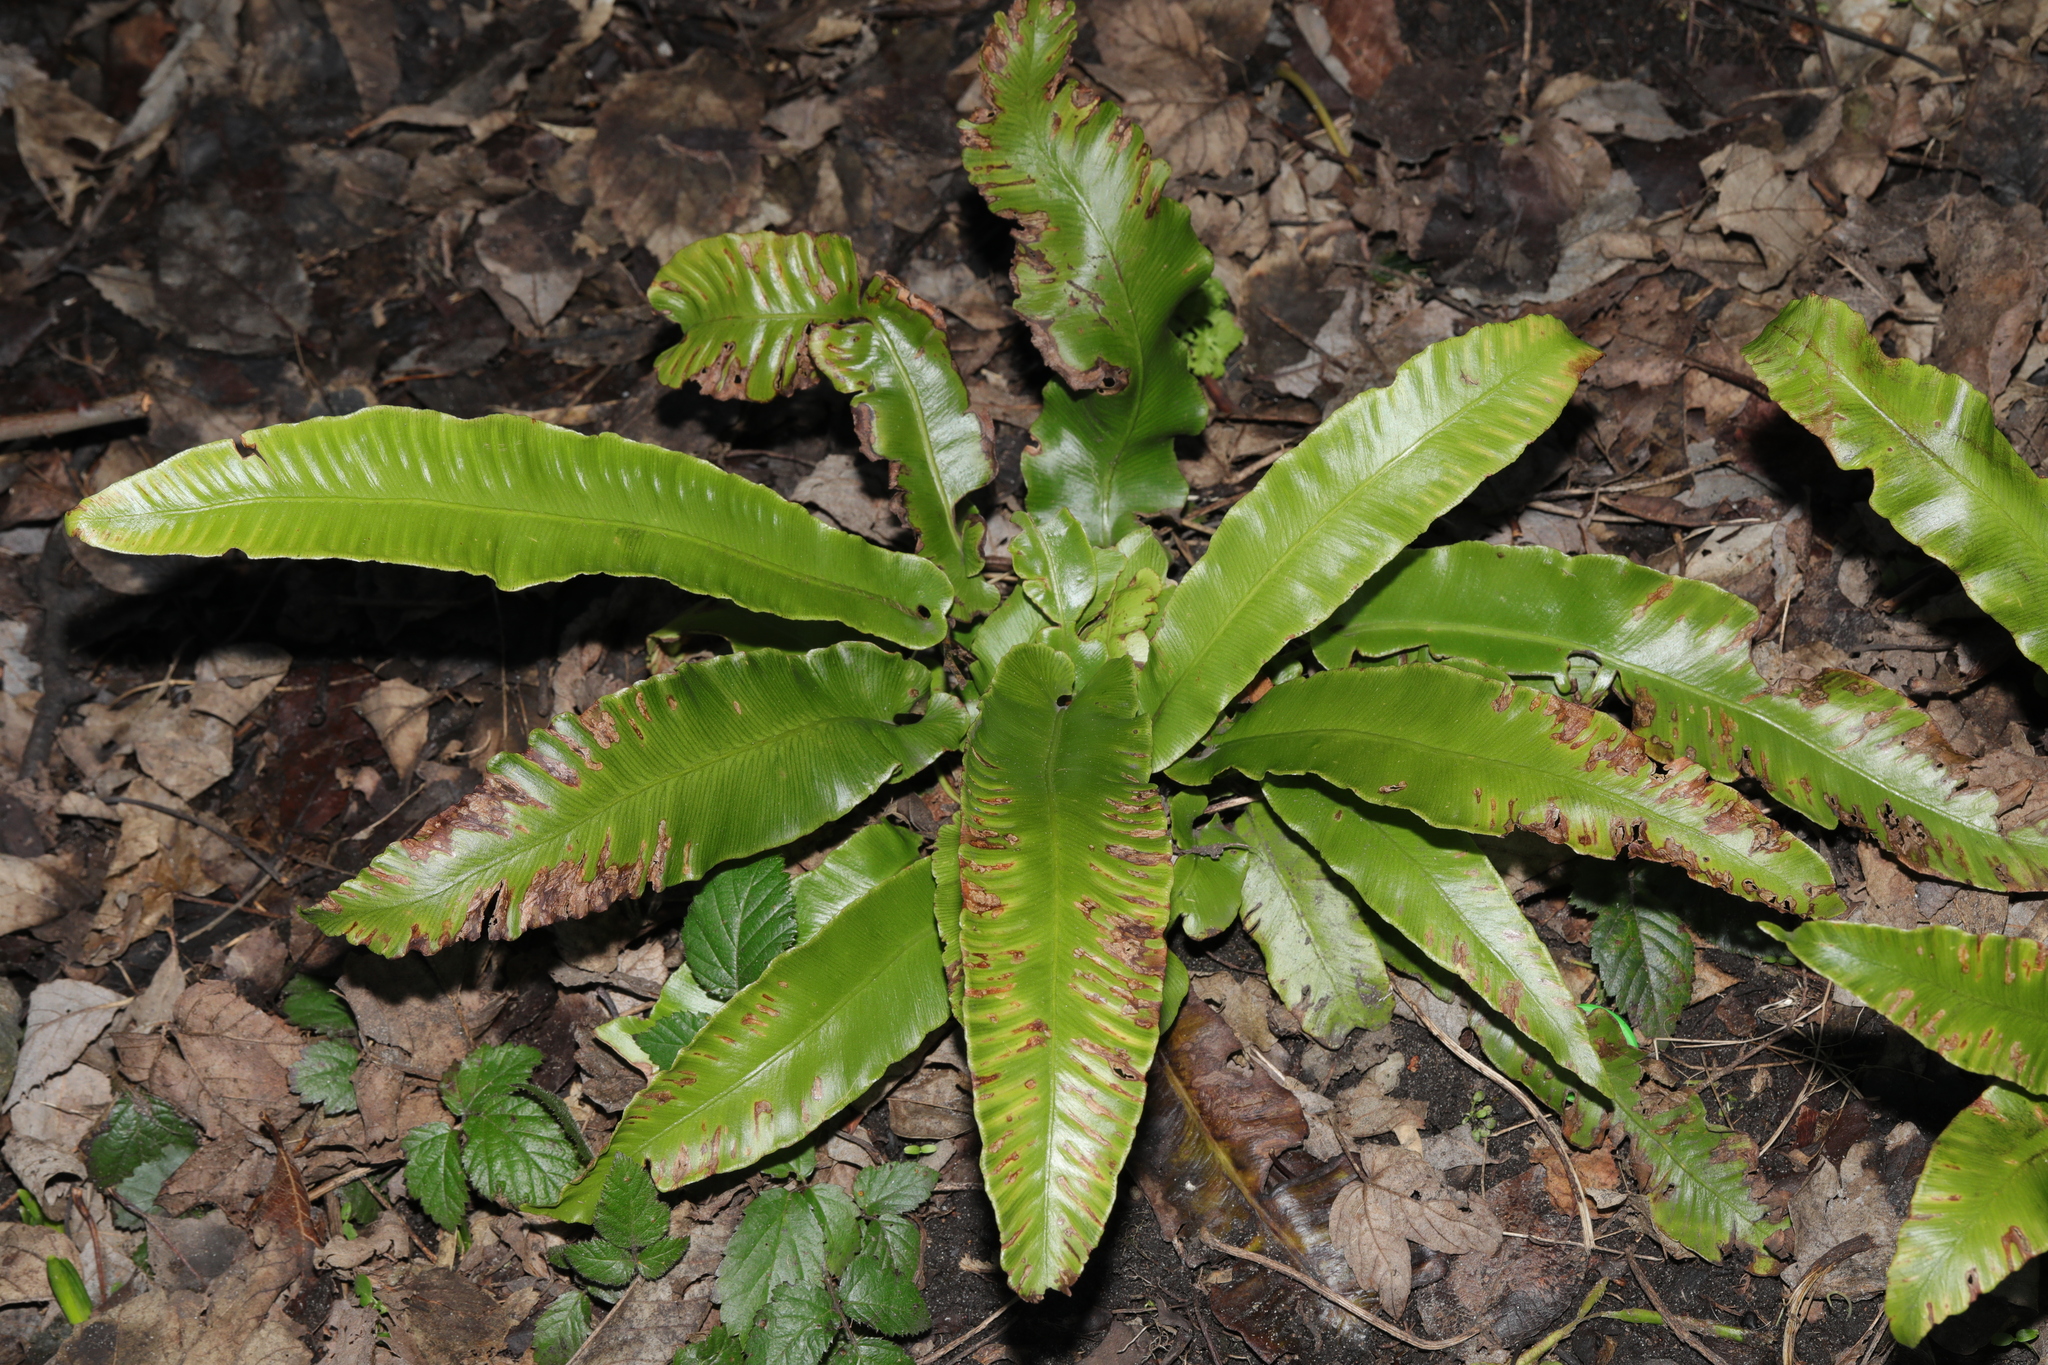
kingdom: Plantae
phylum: Tracheophyta
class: Polypodiopsida
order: Polypodiales
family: Aspleniaceae
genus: Asplenium
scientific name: Asplenium scolopendrium
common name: Hart's-tongue fern
